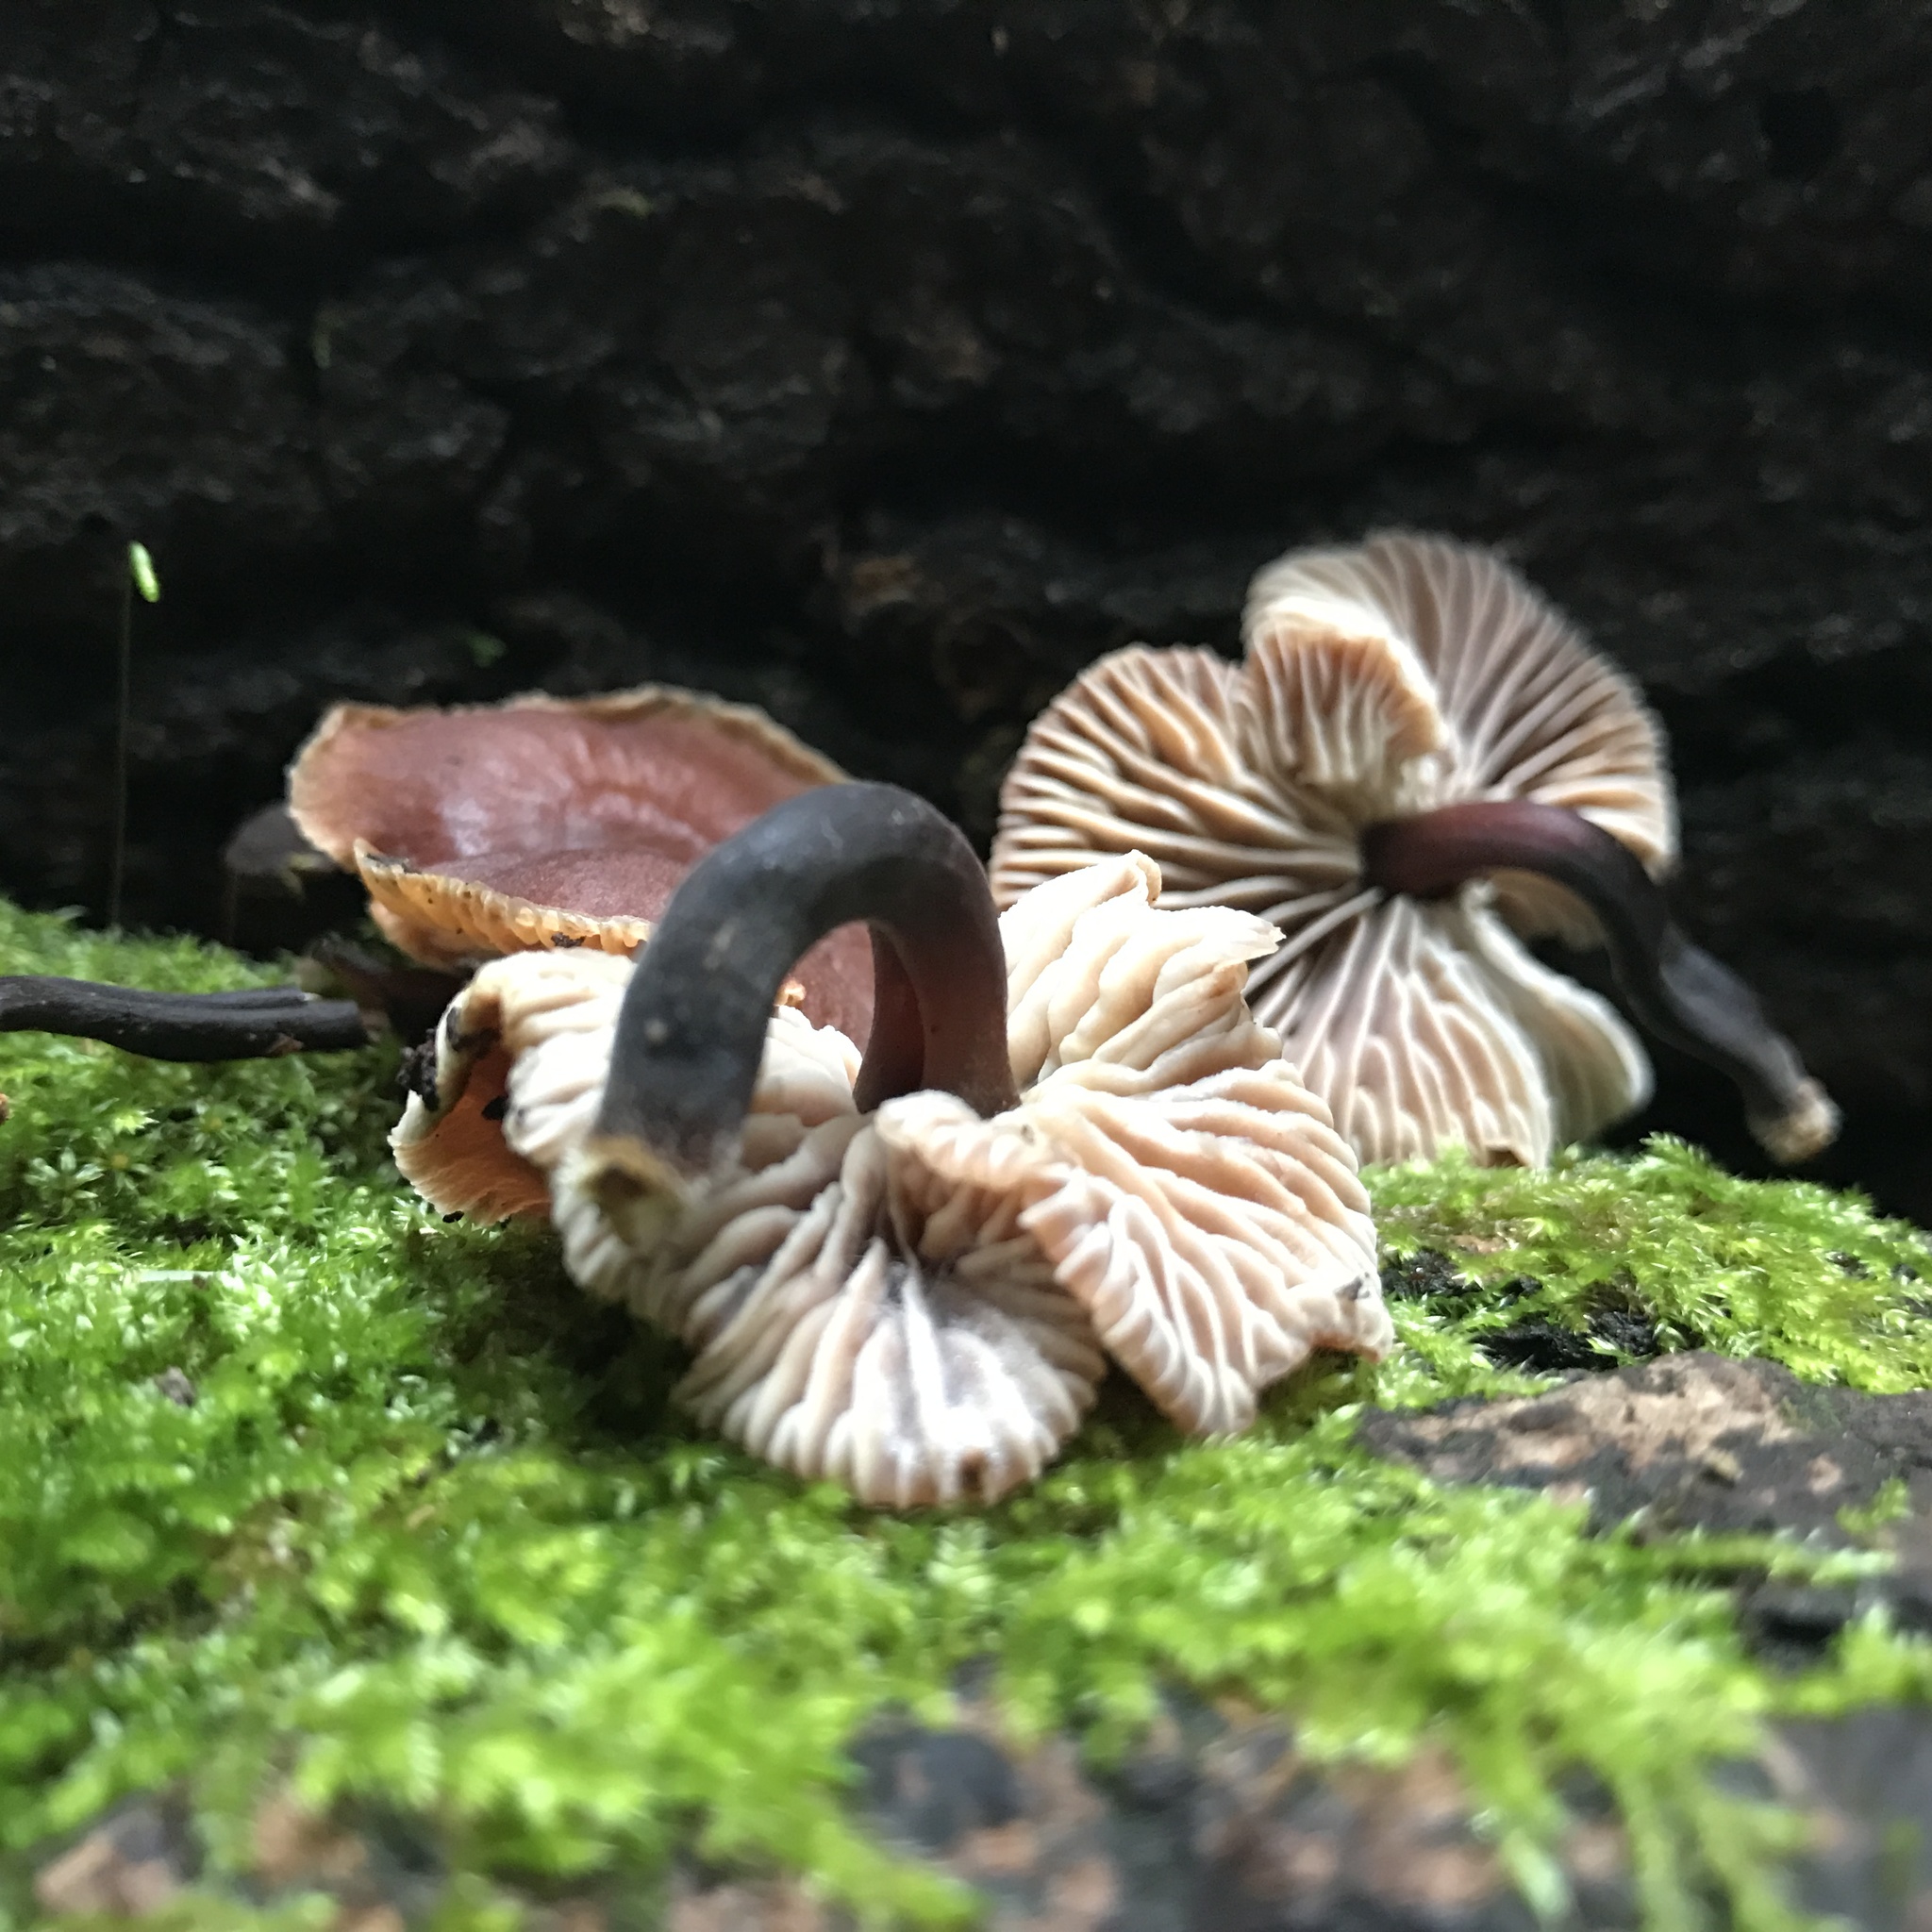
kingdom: Fungi
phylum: Basidiomycota
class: Agaricomycetes
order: Agaricales
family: Omphalotaceae
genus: Gymnopus
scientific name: Gymnopus brassicolens
